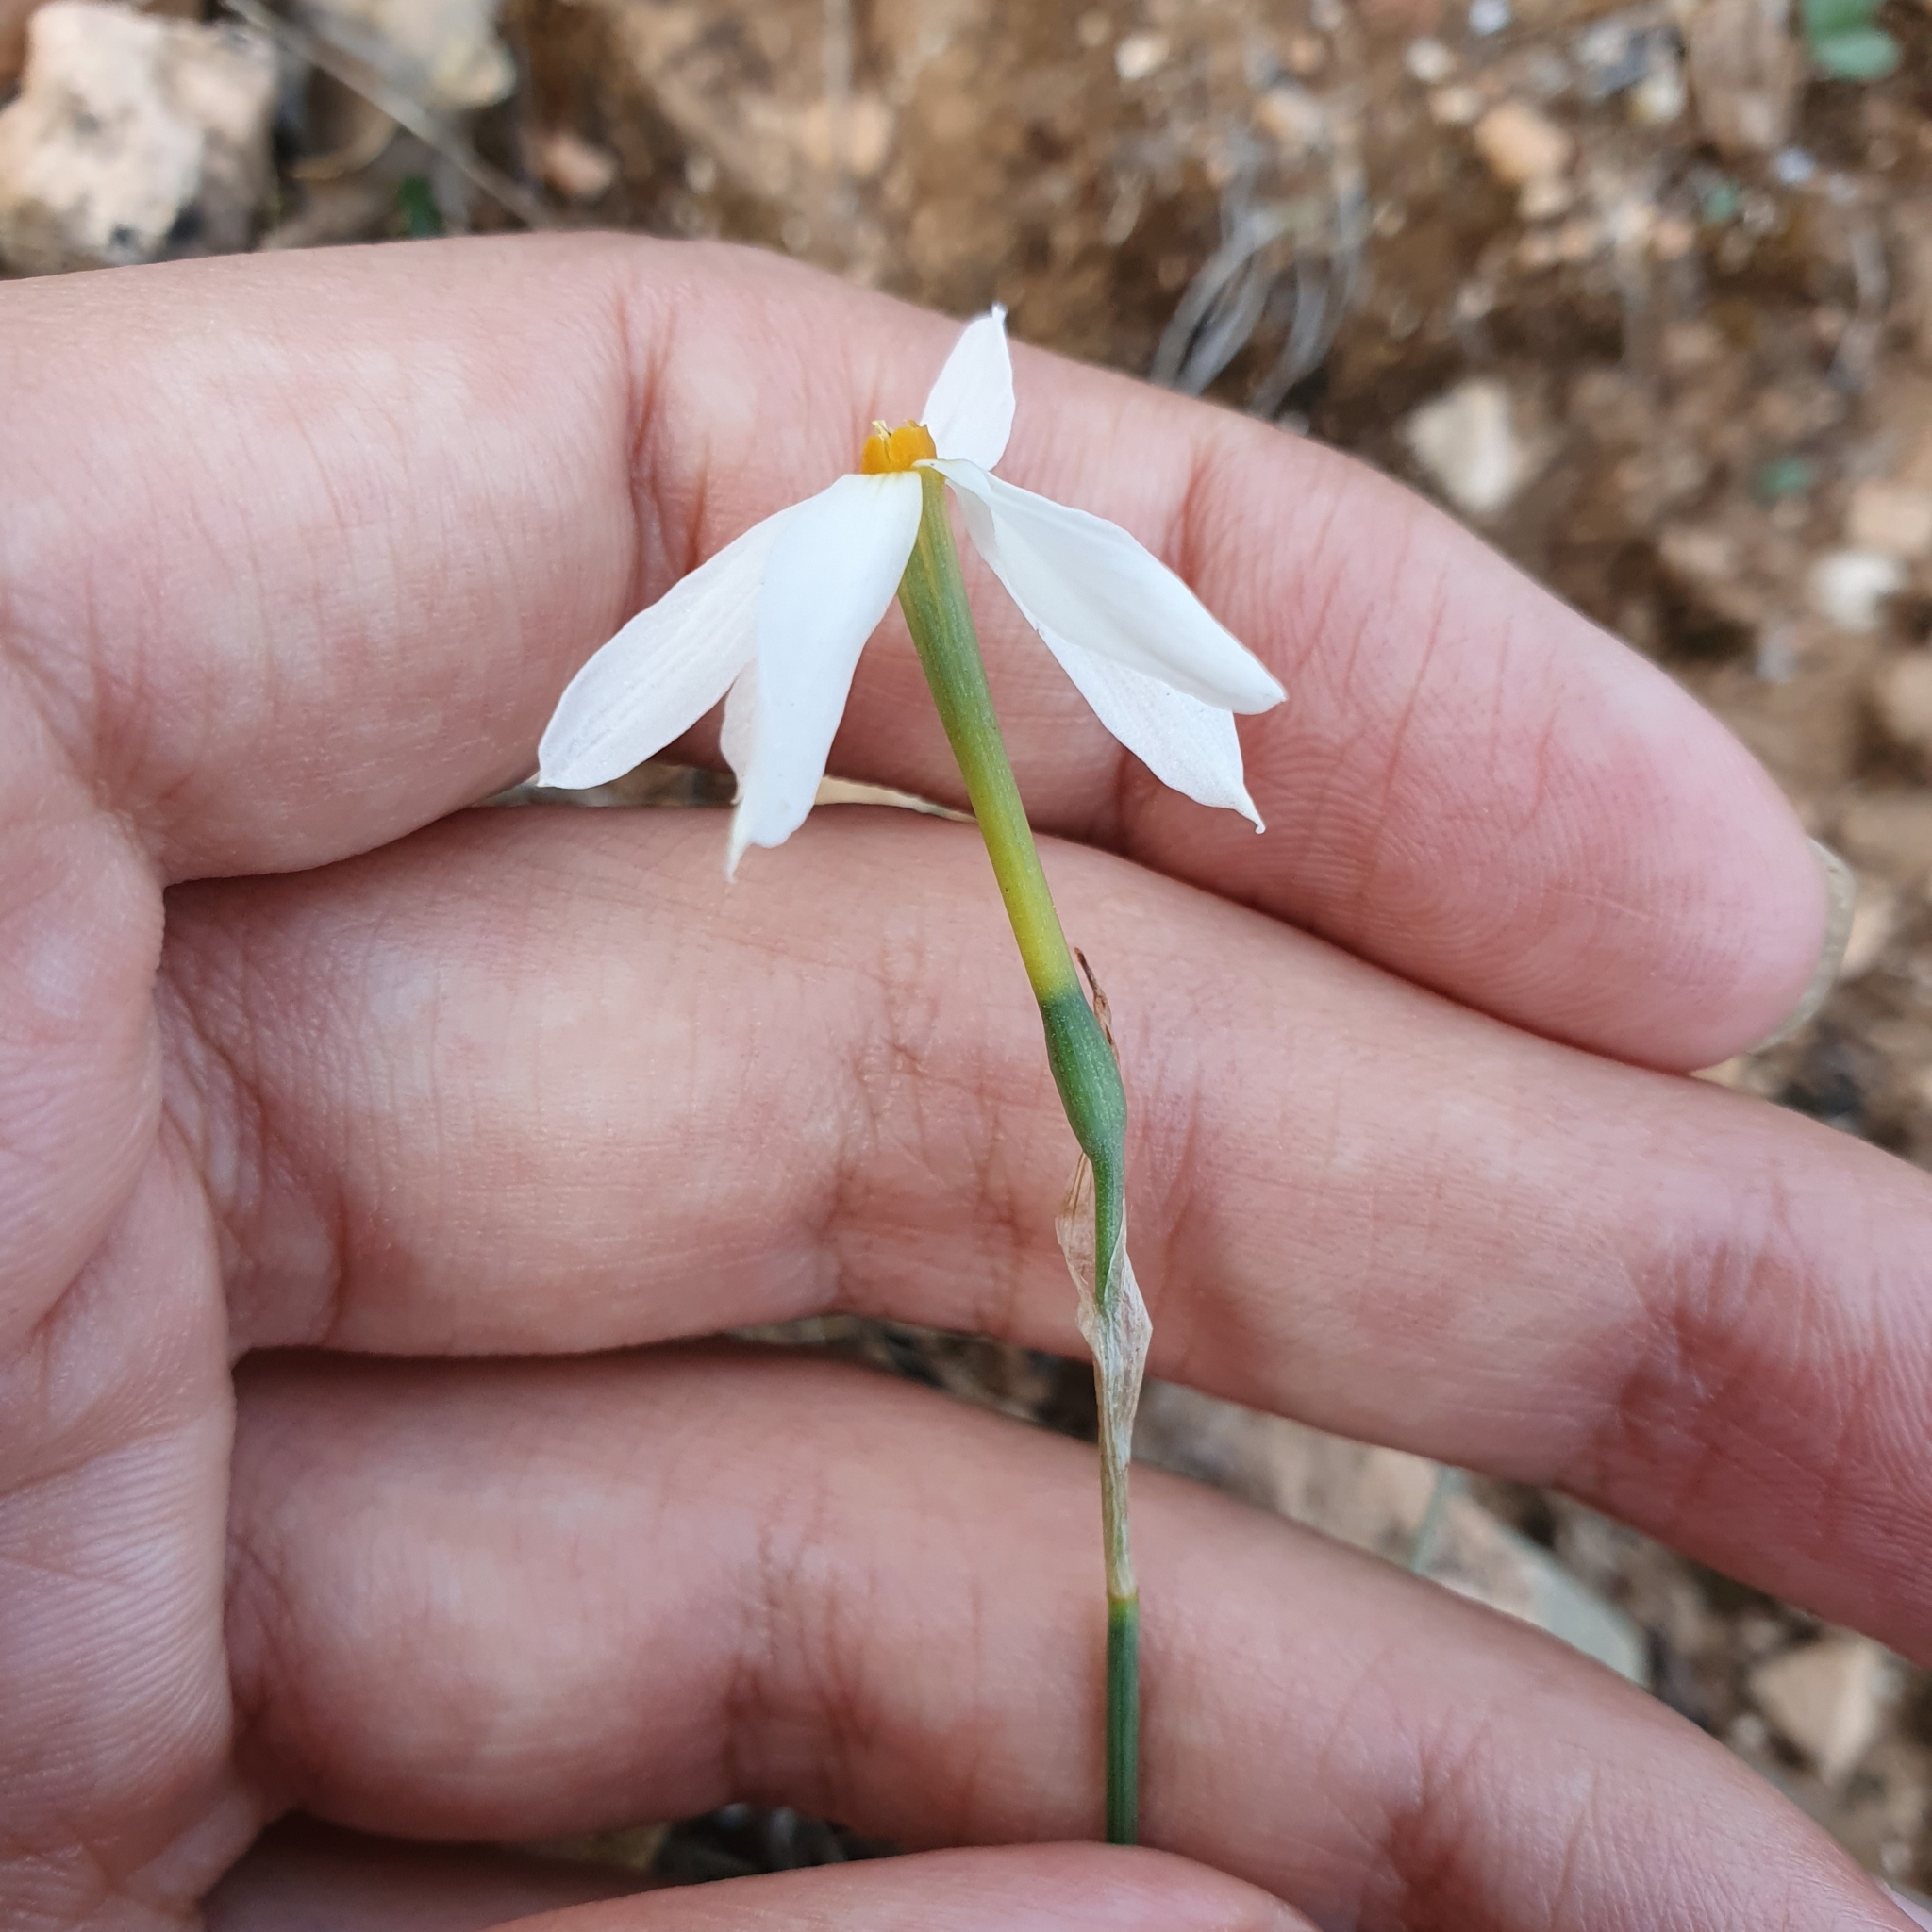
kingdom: Plantae
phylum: Tracheophyta
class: Liliopsida
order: Asparagales
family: Amaryllidaceae
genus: Narcissus
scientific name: Narcissus deficiens
